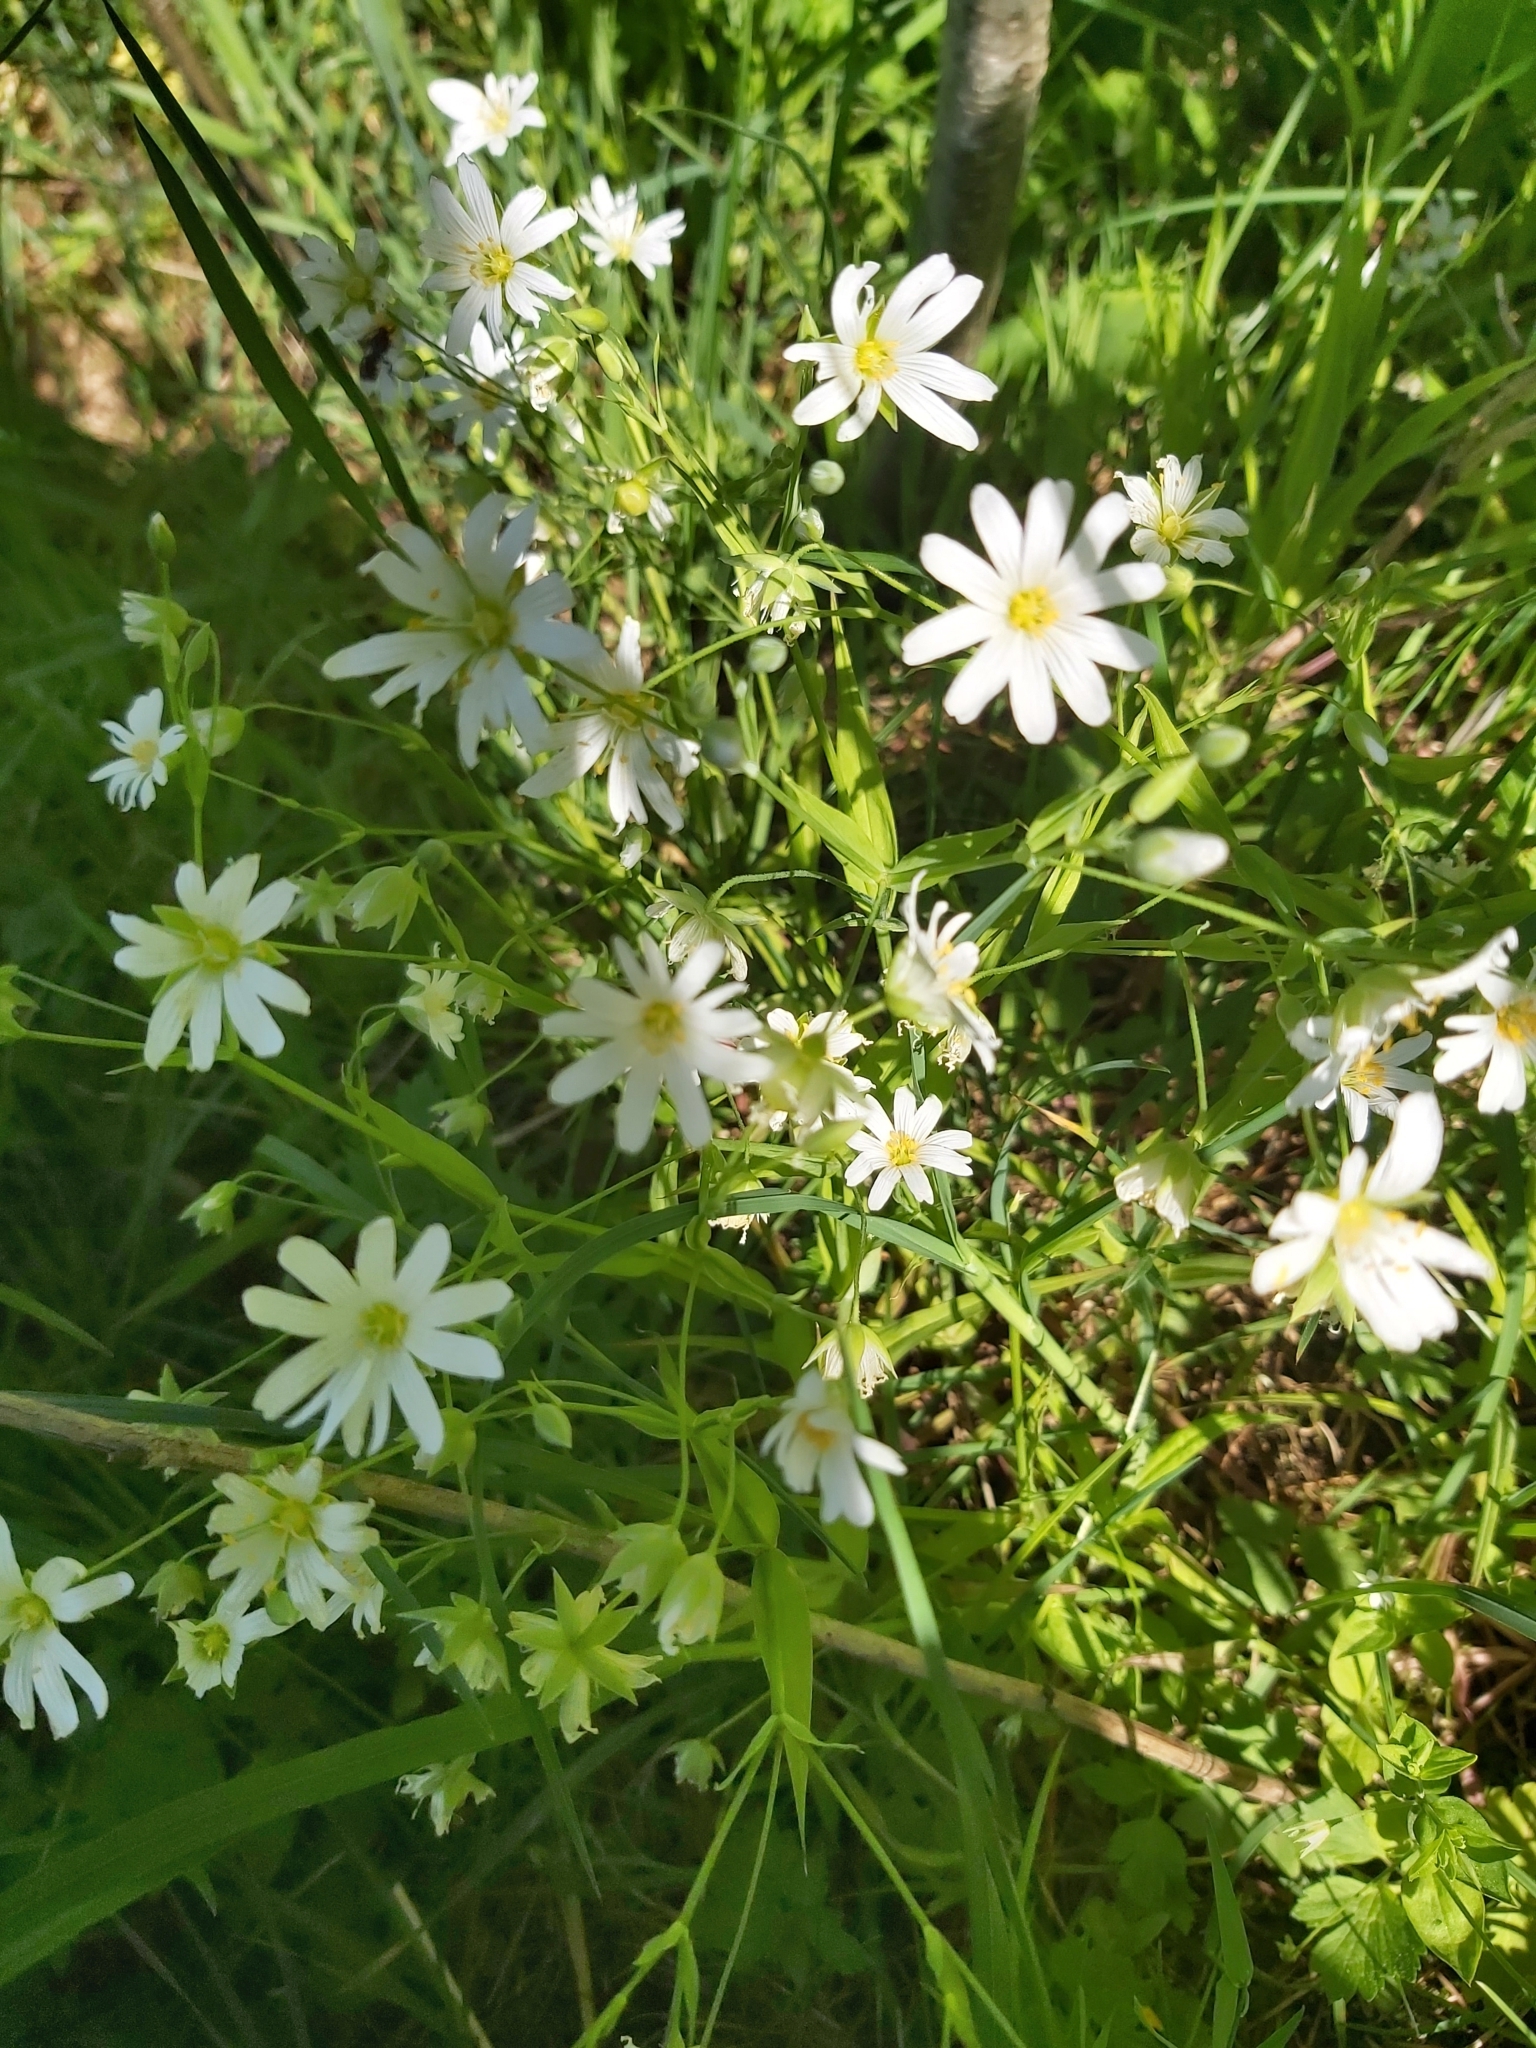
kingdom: Plantae
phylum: Tracheophyta
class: Magnoliopsida
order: Caryophyllales
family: Caryophyllaceae
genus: Rabelera
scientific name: Rabelera holostea
